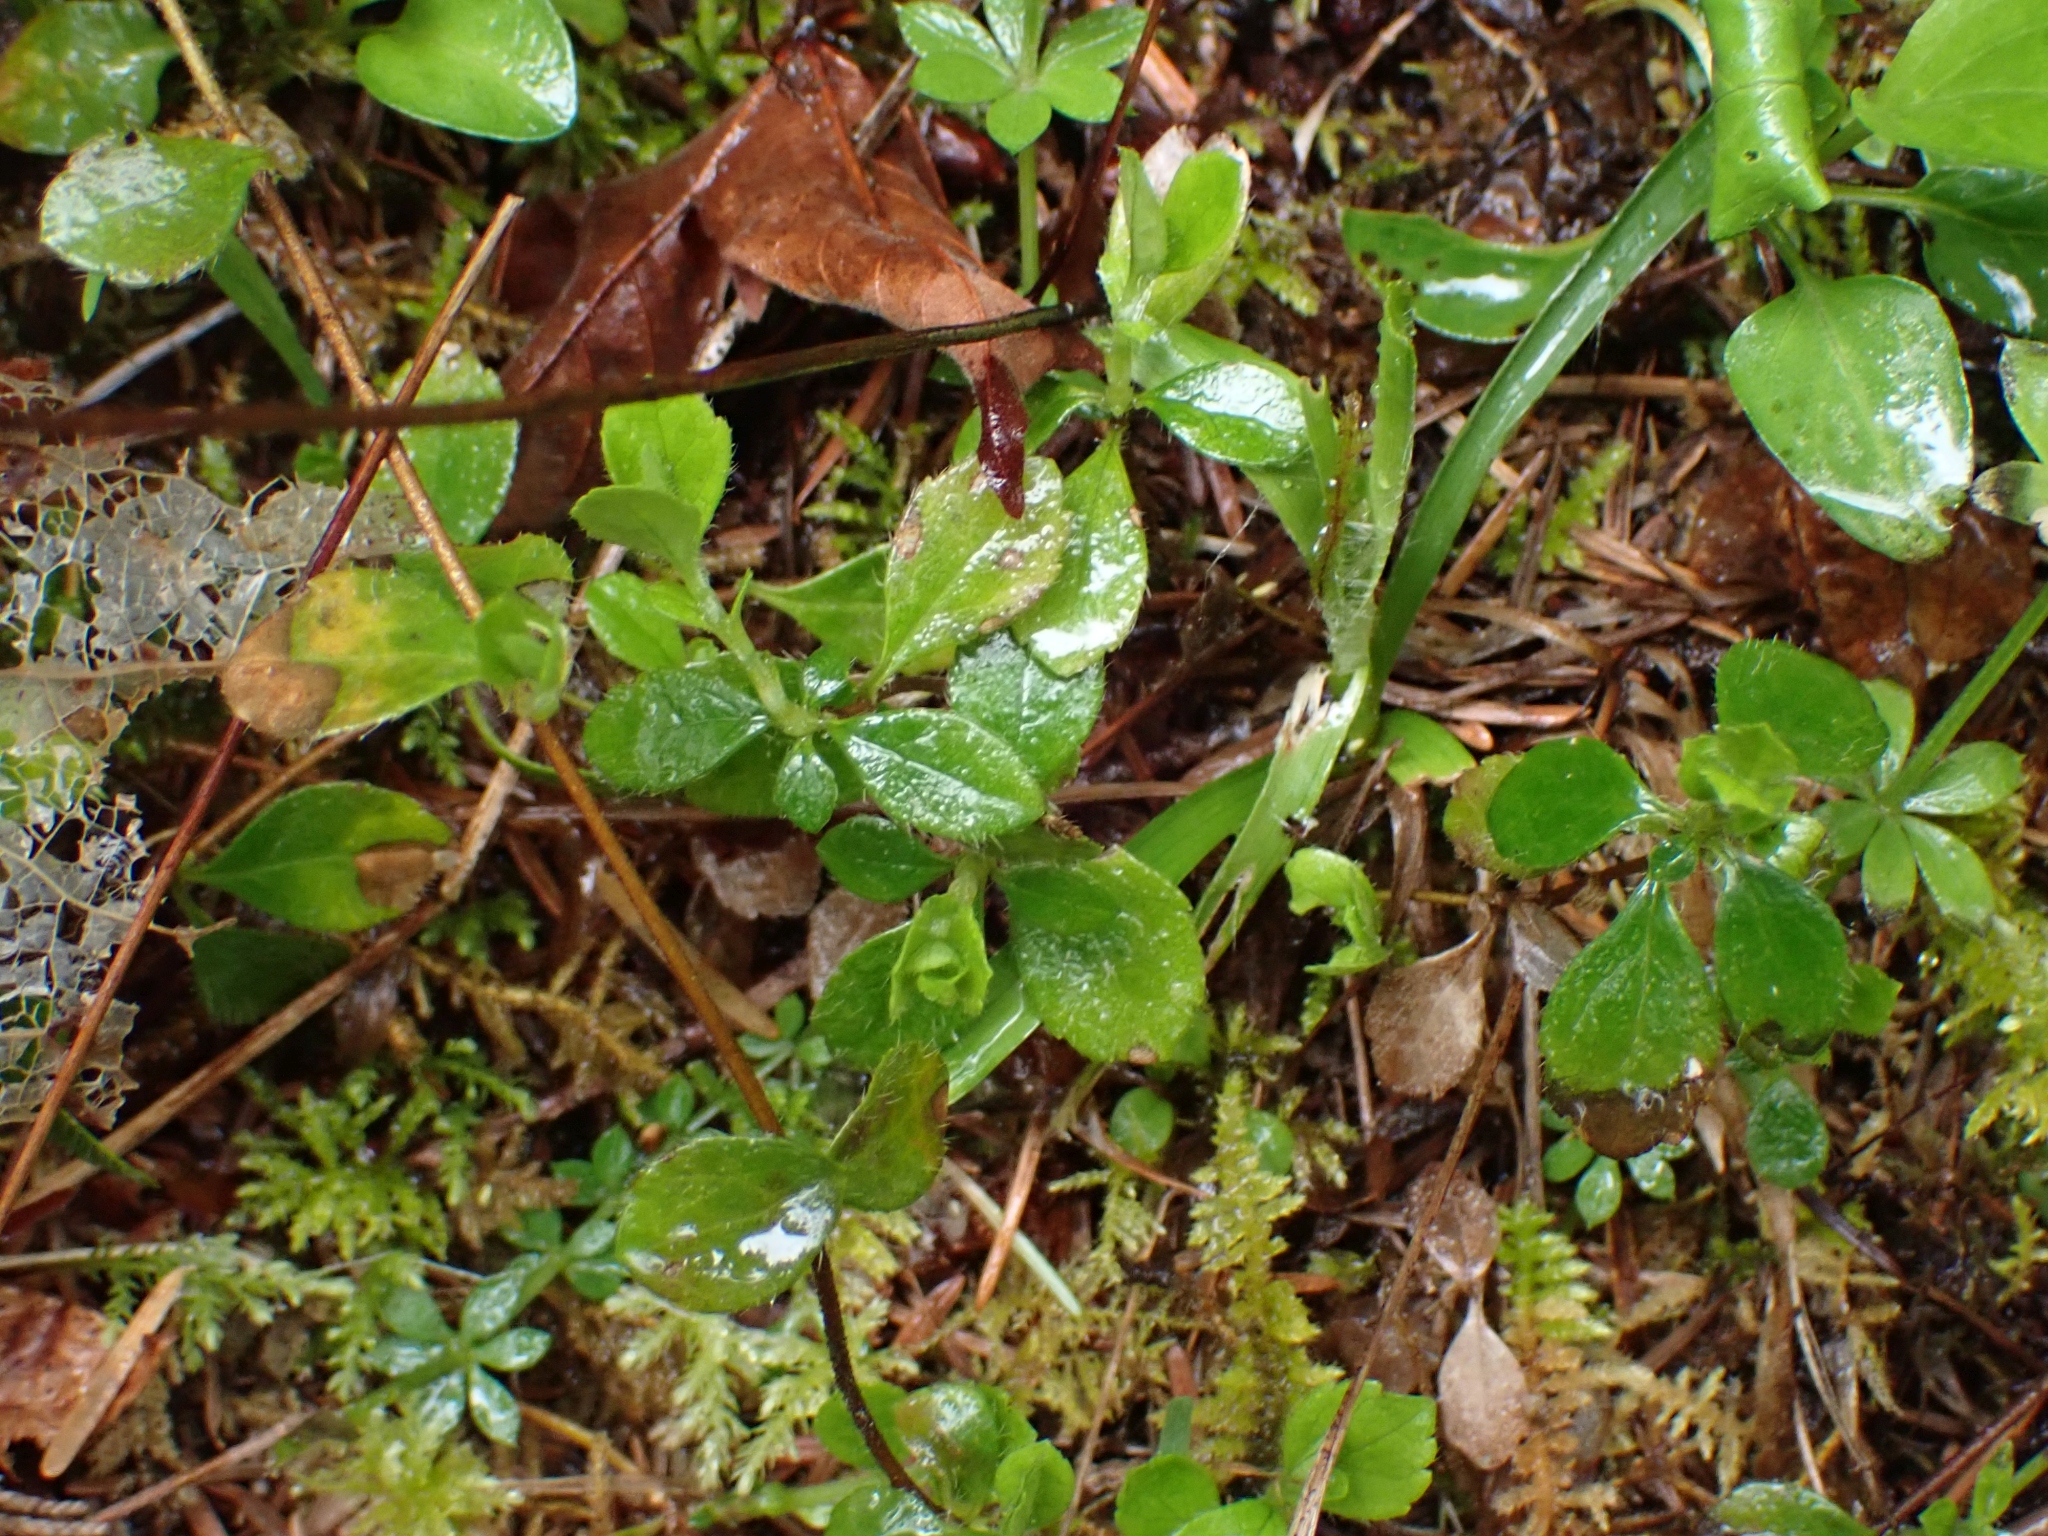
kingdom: Plantae
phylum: Tracheophyta
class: Magnoliopsida
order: Dipsacales
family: Caprifoliaceae
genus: Linnaea
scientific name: Linnaea borealis
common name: Twinflower
